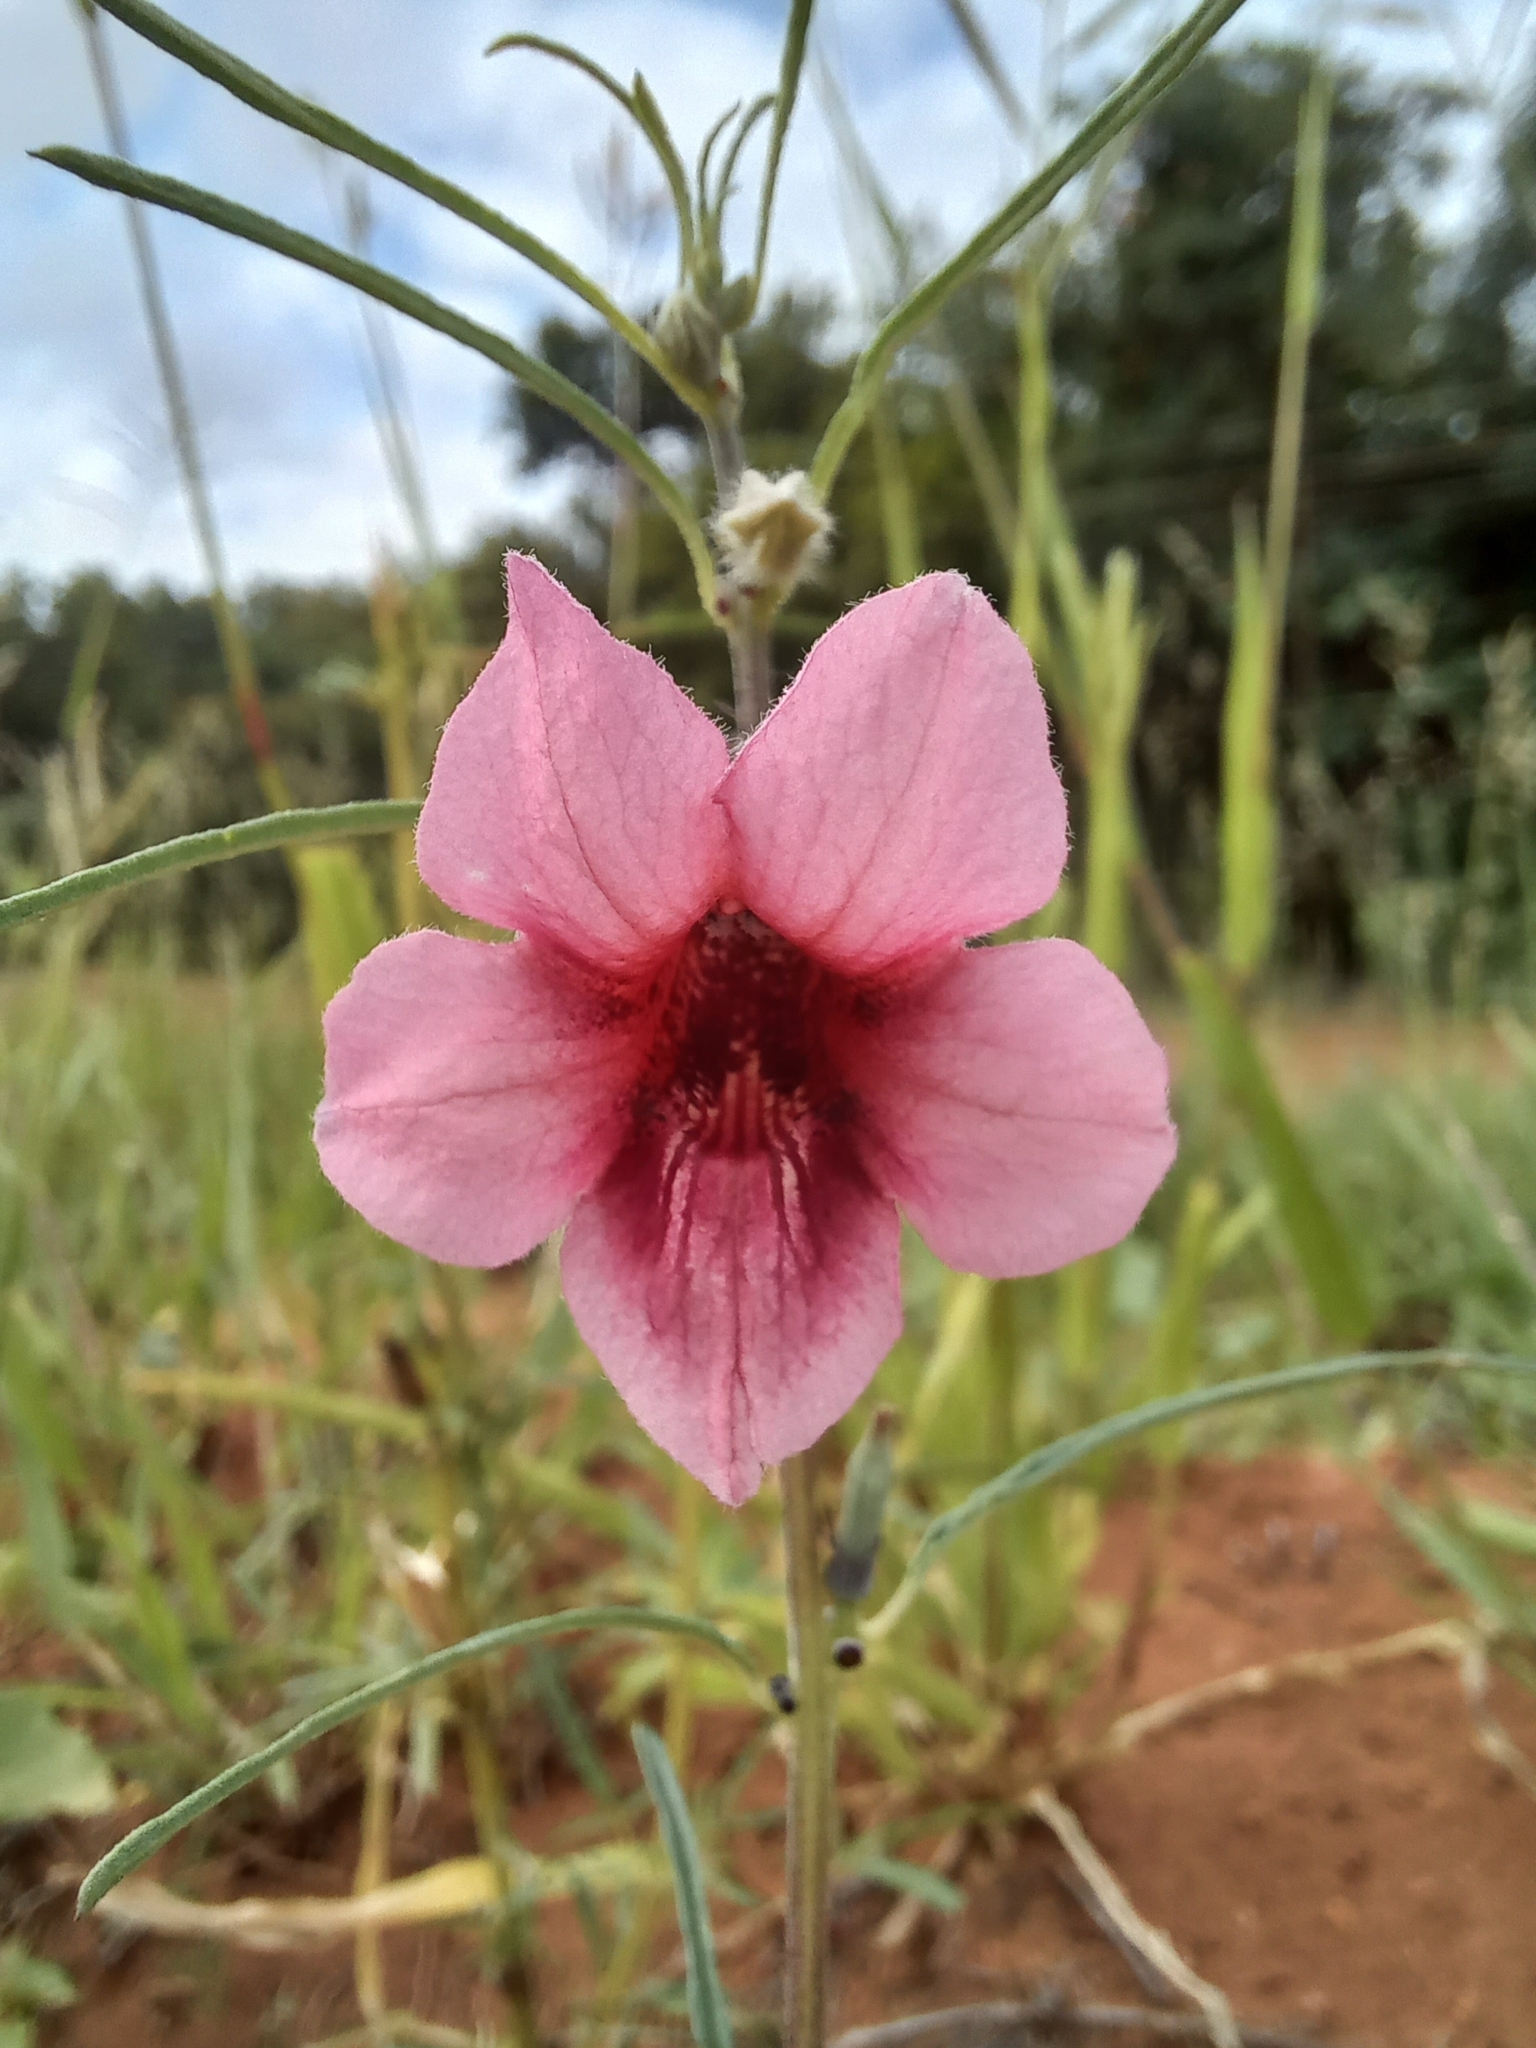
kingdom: Plantae
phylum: Tracheophyta
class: Magnoliopsida
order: Lamiales
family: Pedaliaceae
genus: Sesamum
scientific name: Sesamum alatum
